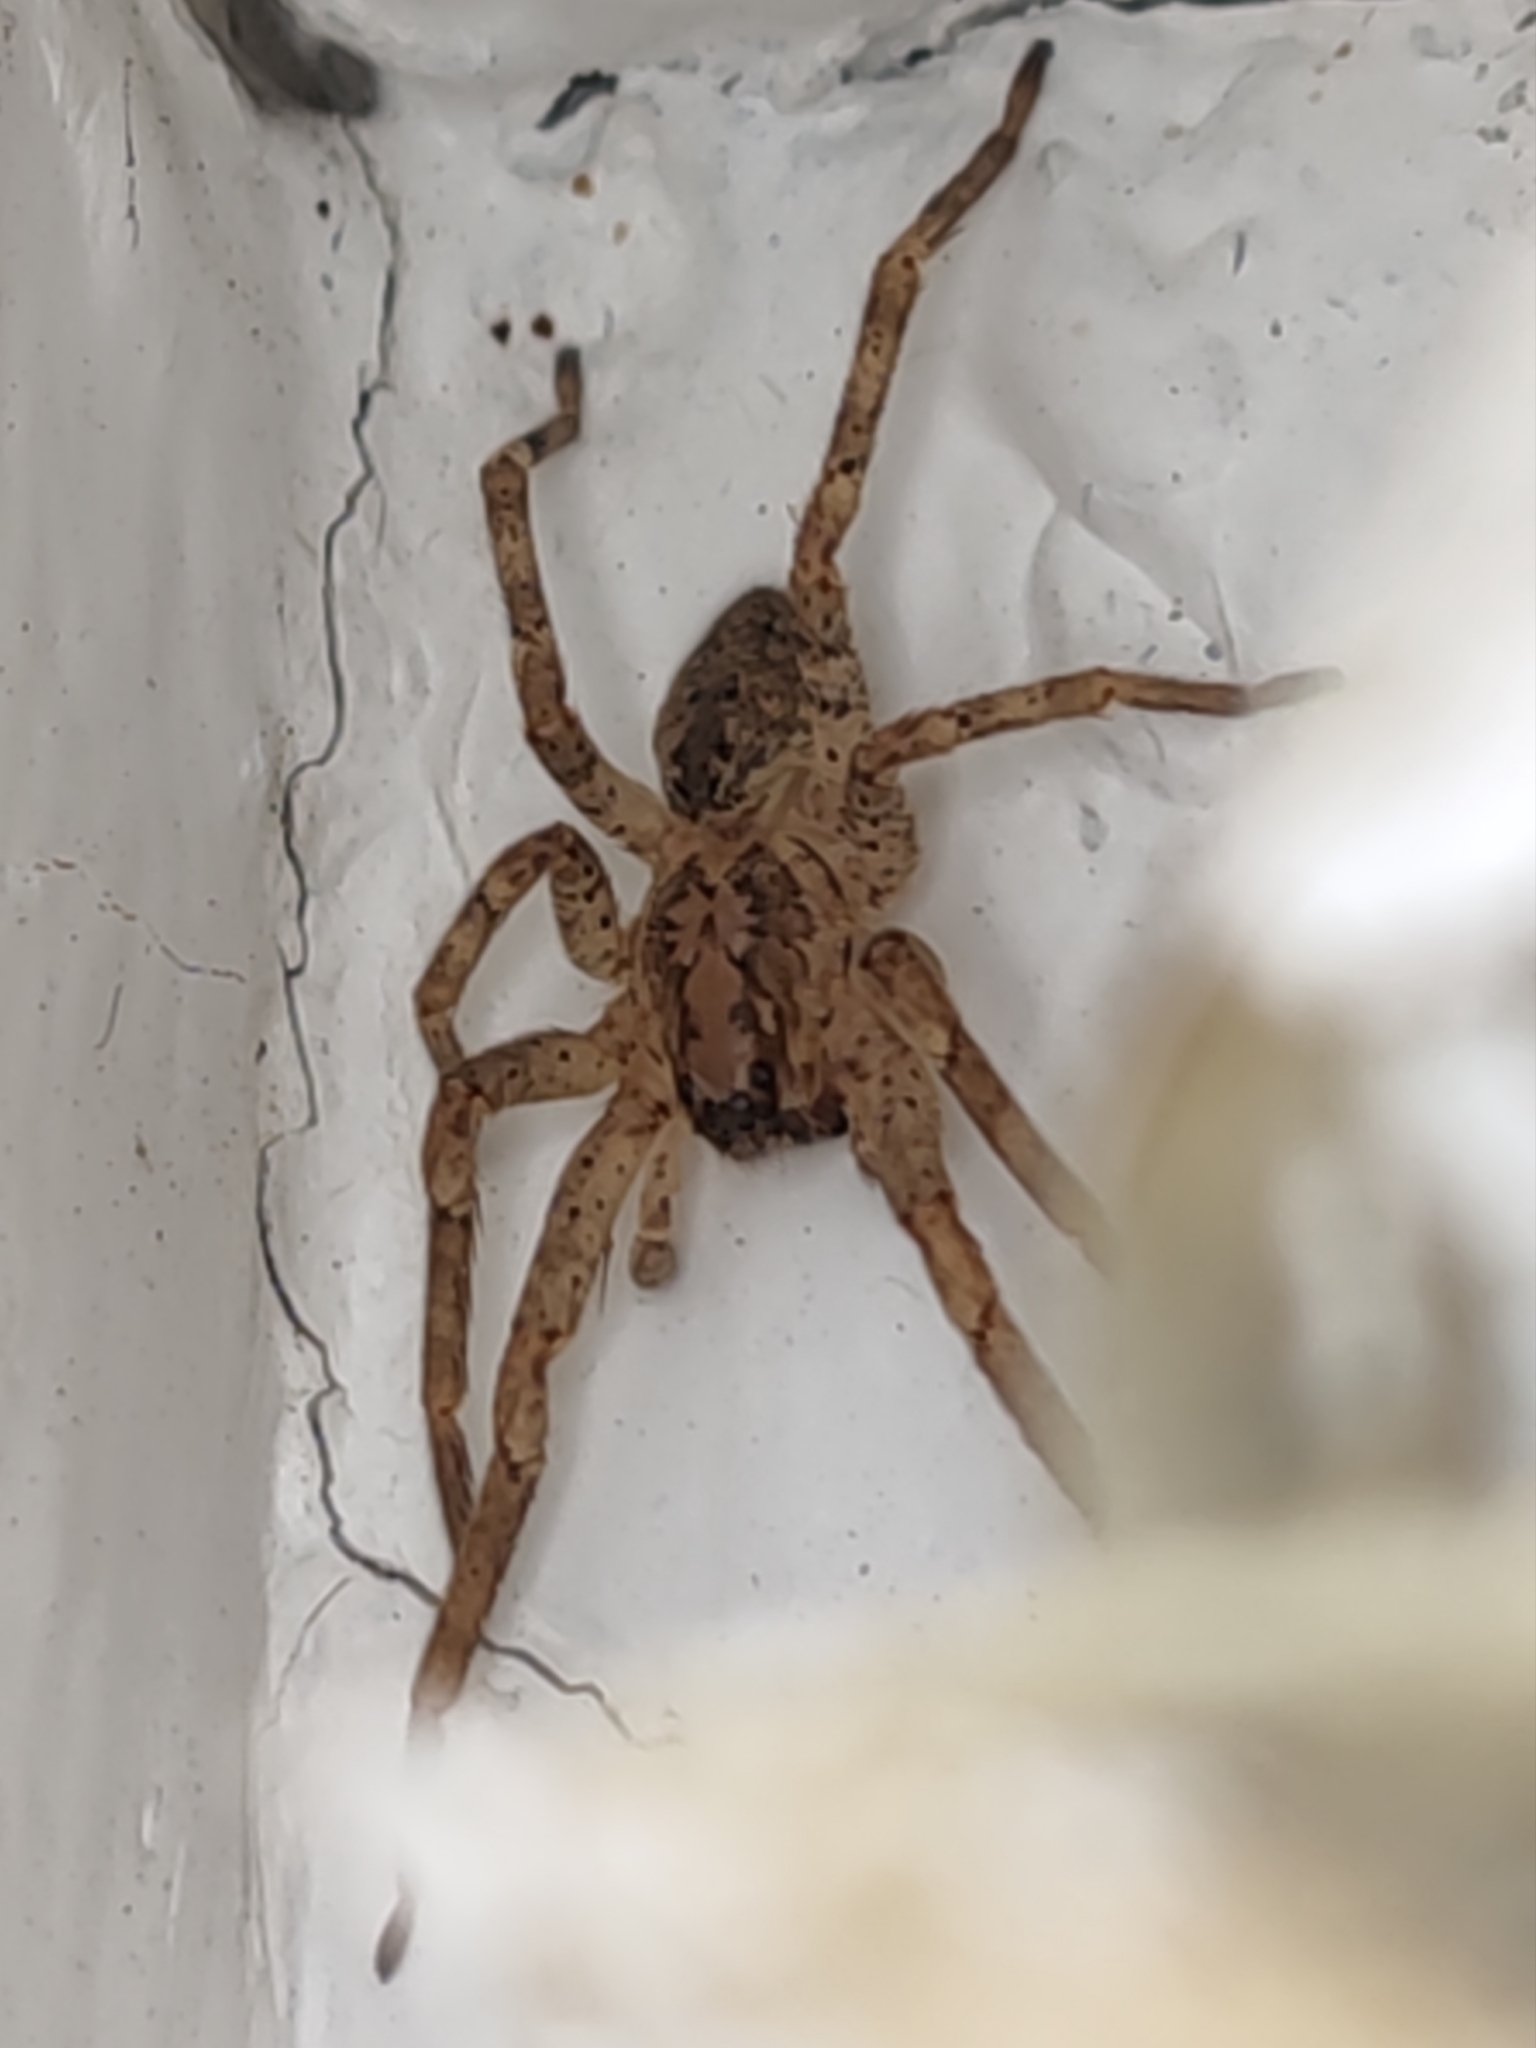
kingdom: Animalia
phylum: Arthropoda
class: Arachnida
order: Araneae
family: Zoropsidae
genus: Zoropsis
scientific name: Zoropsis spinimana
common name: Zoropsid spider
